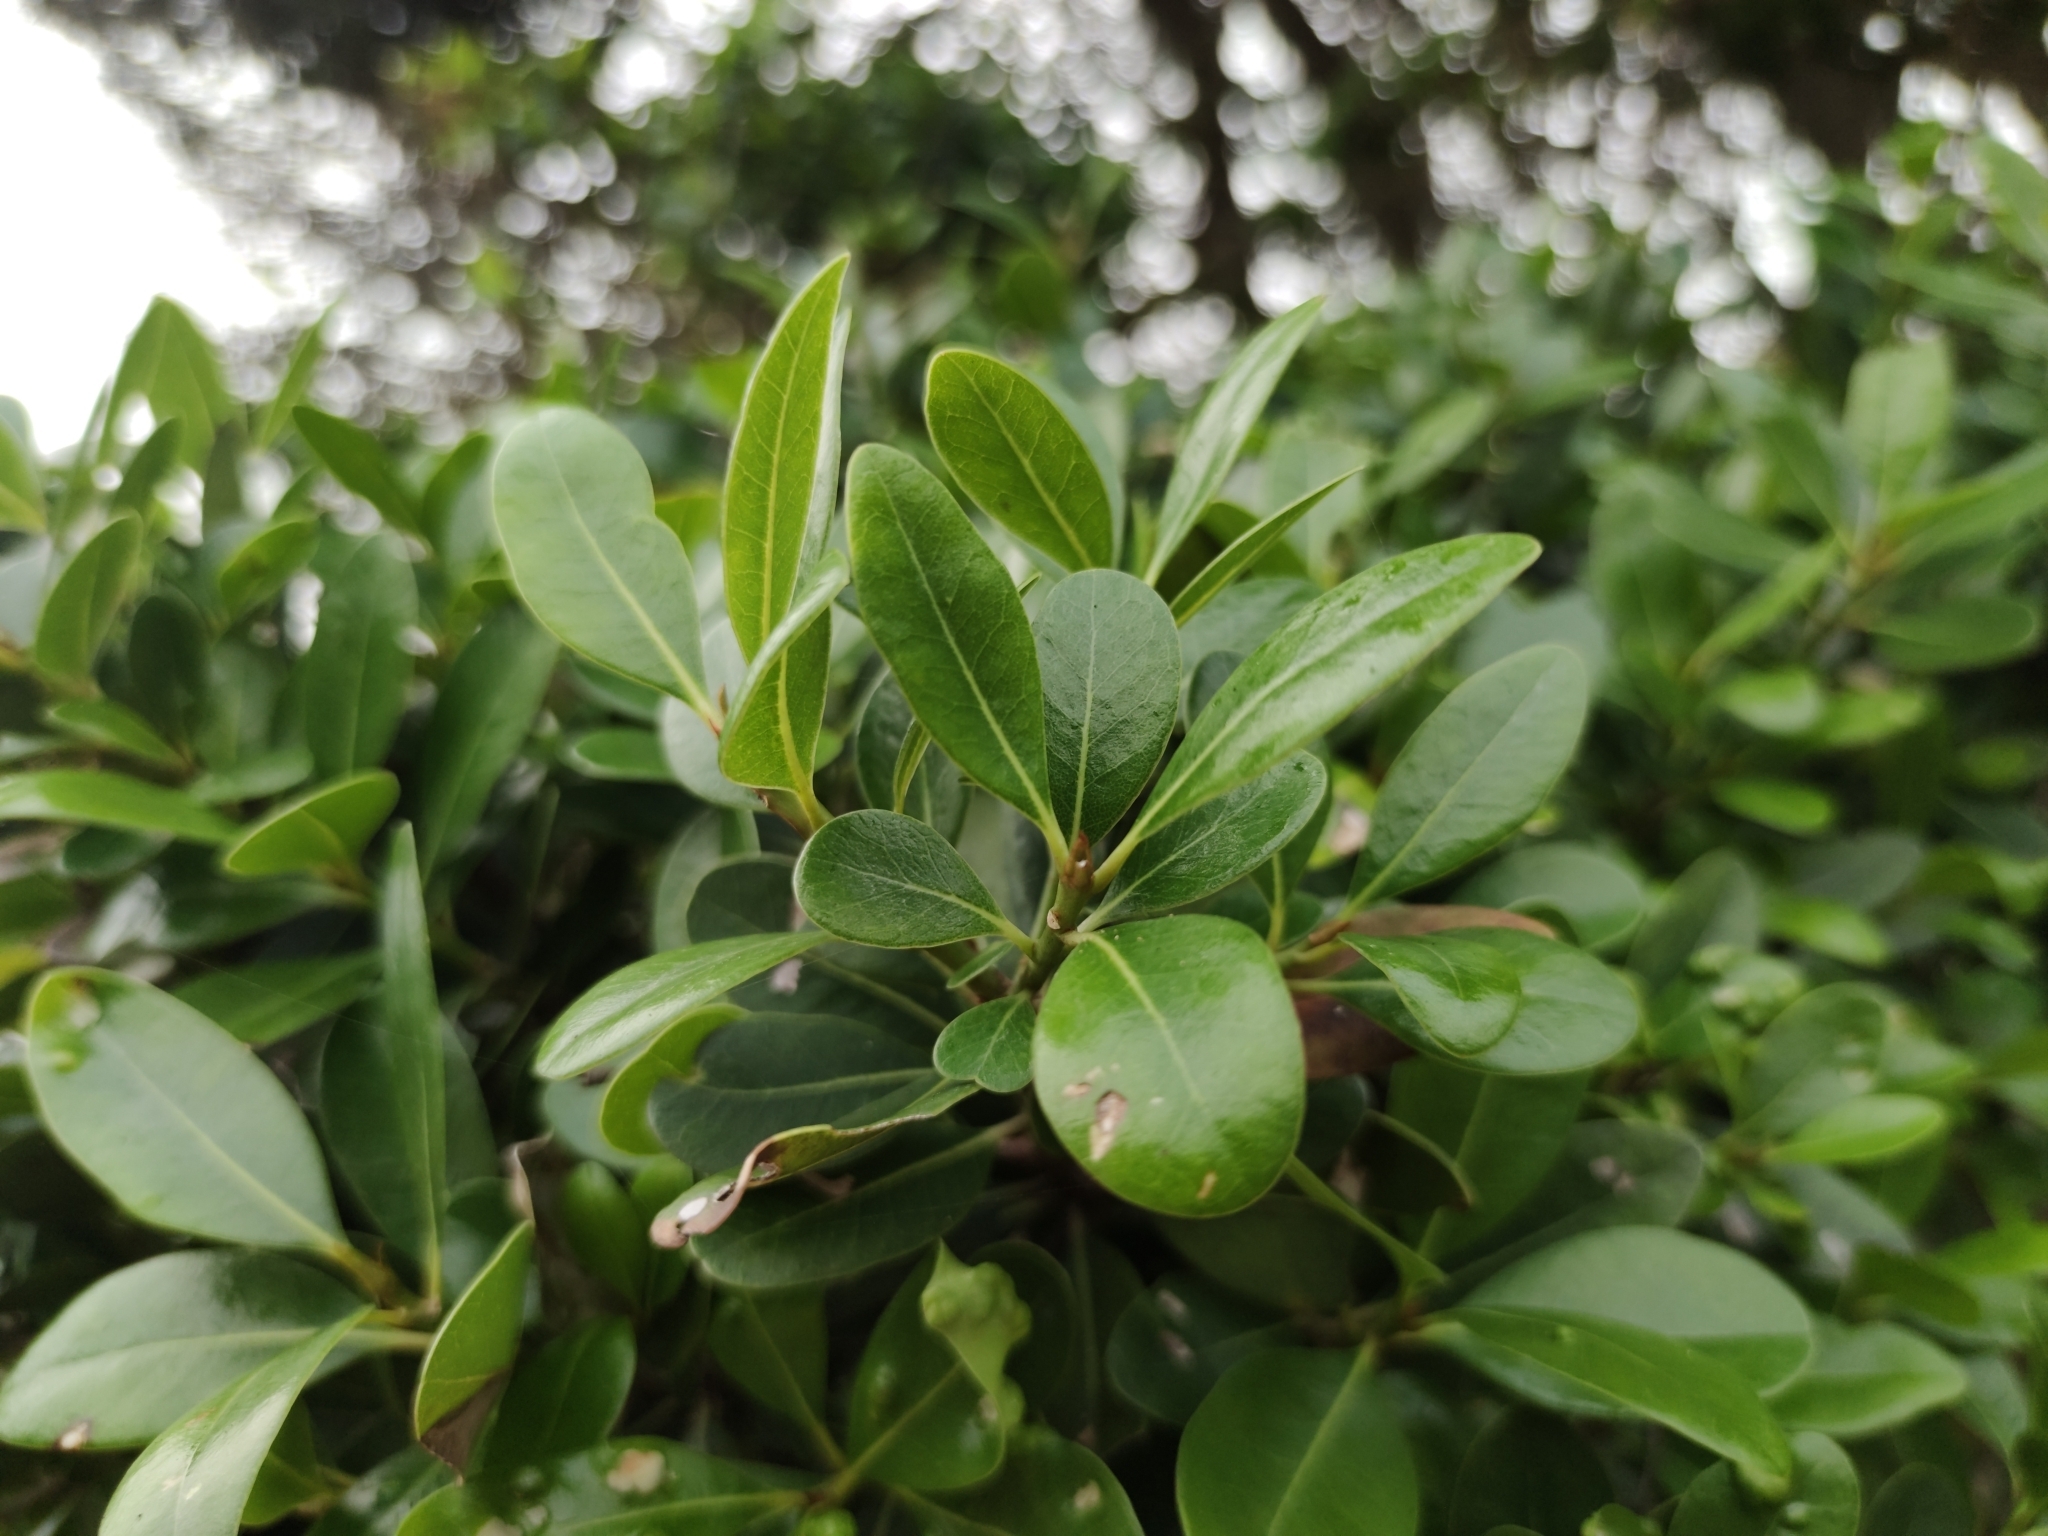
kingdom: Plantae
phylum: Tracheophyta
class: Magnoliopsida
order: Ericales
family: Sapotaceae
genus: Sideroxylon
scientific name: Sideroxylon inerme
